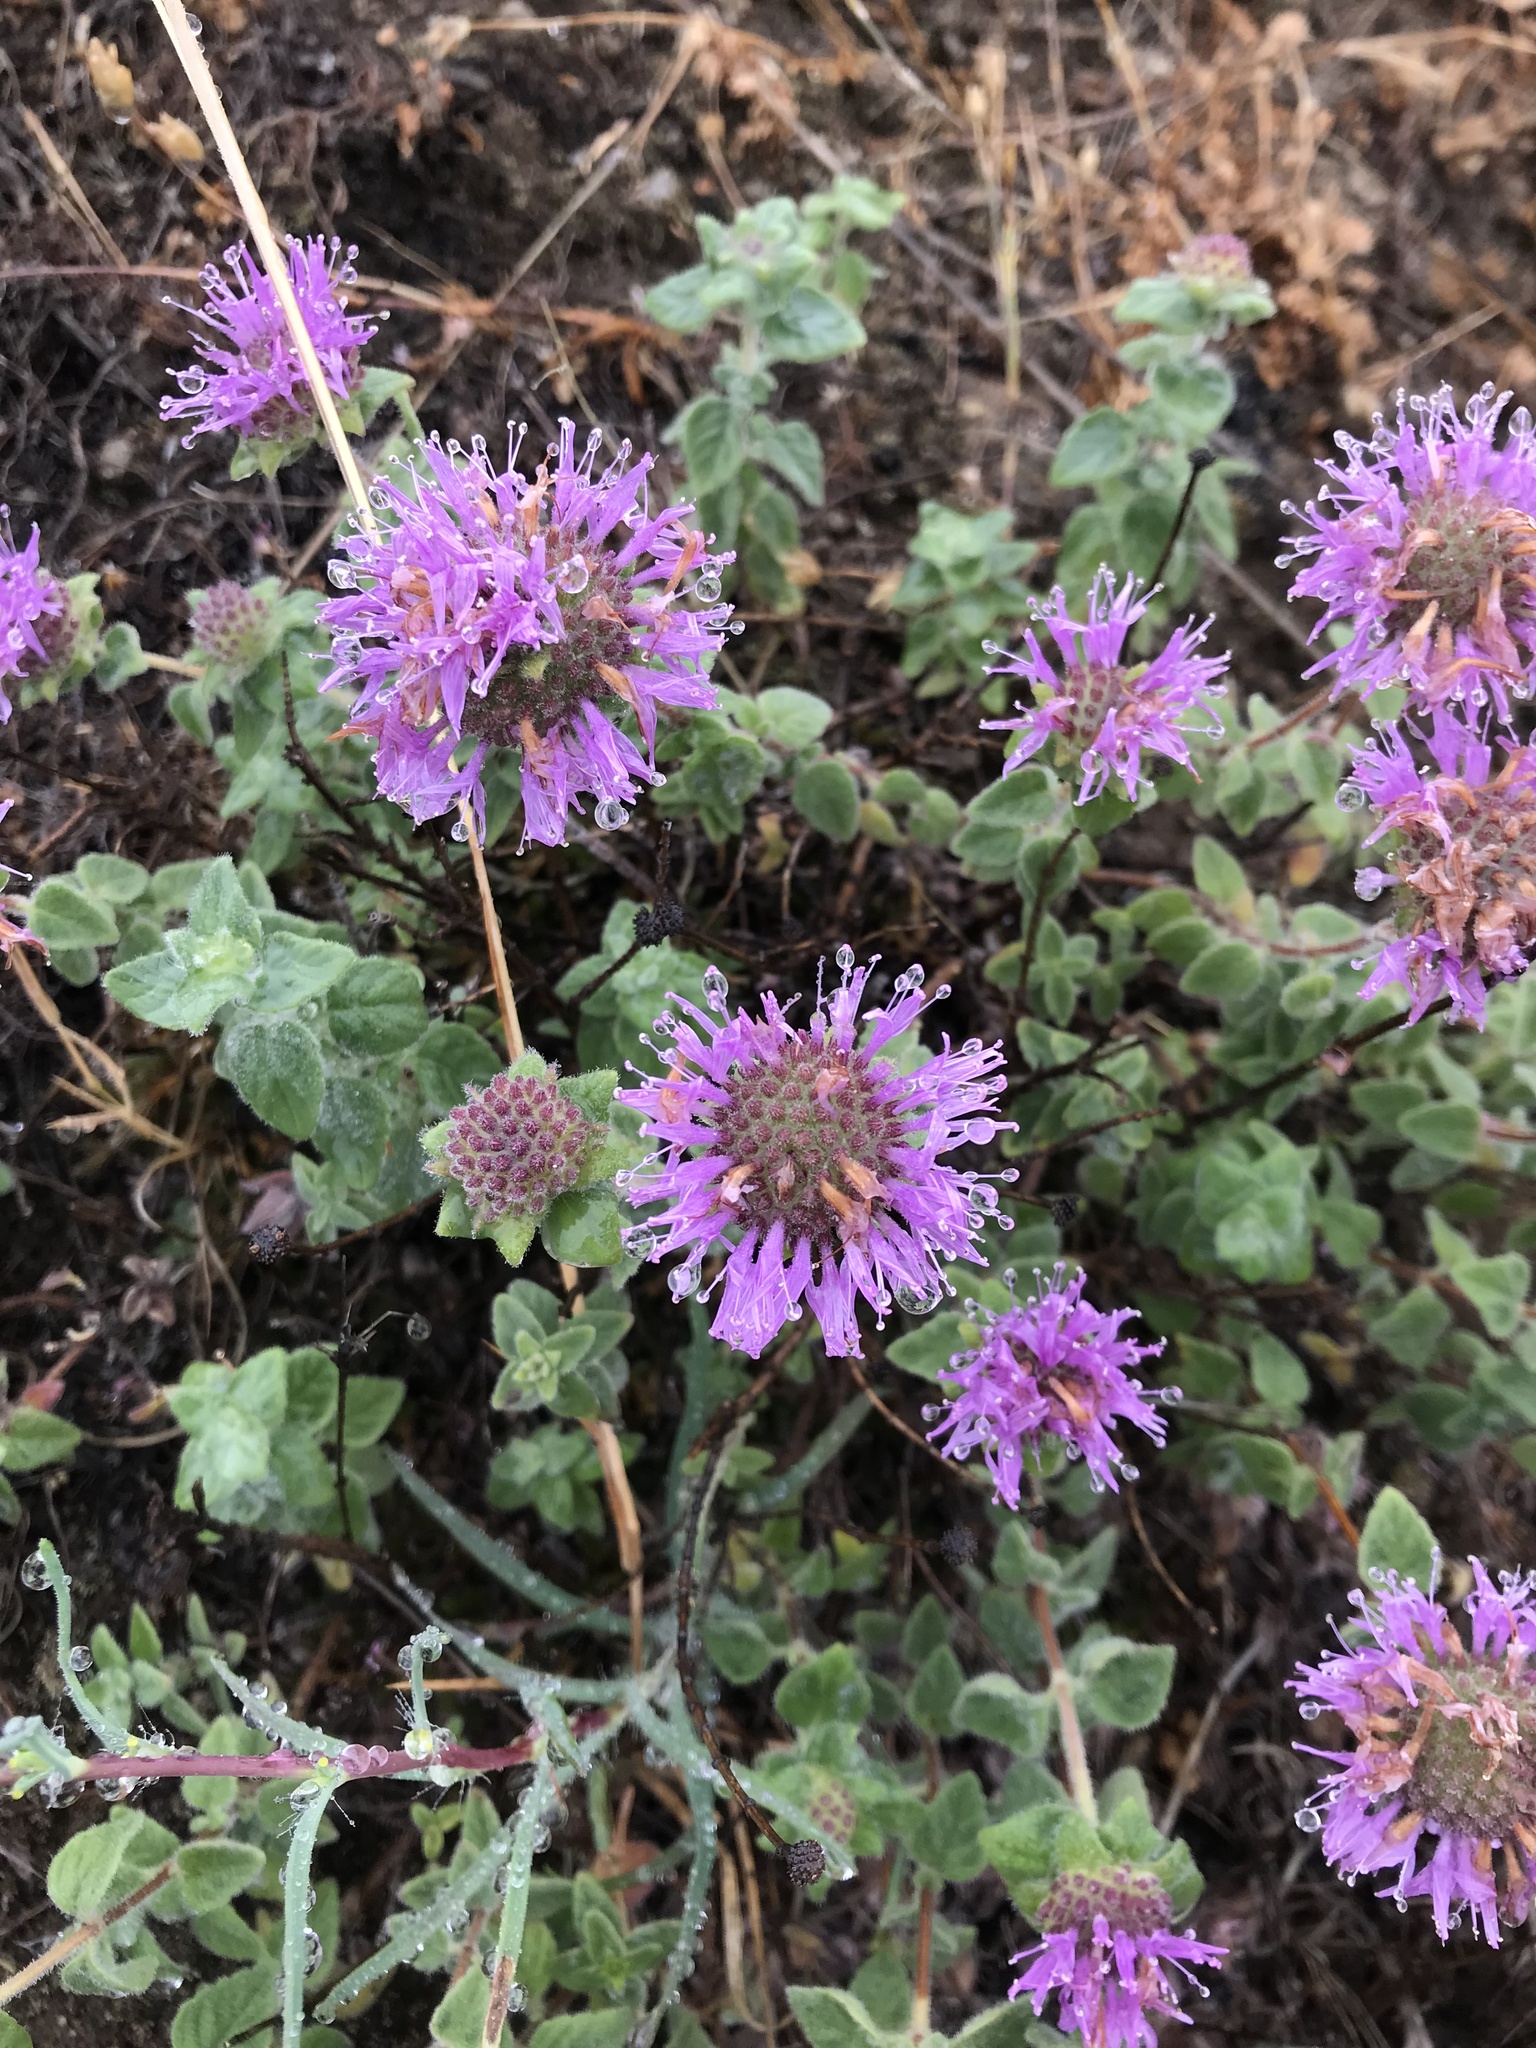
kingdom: Plantae
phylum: Tracheophyta
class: Magnoliopsida
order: Lamiales
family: Lamiaceae
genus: Monardella
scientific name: Monardella odoratissima
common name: Pacific monardella
